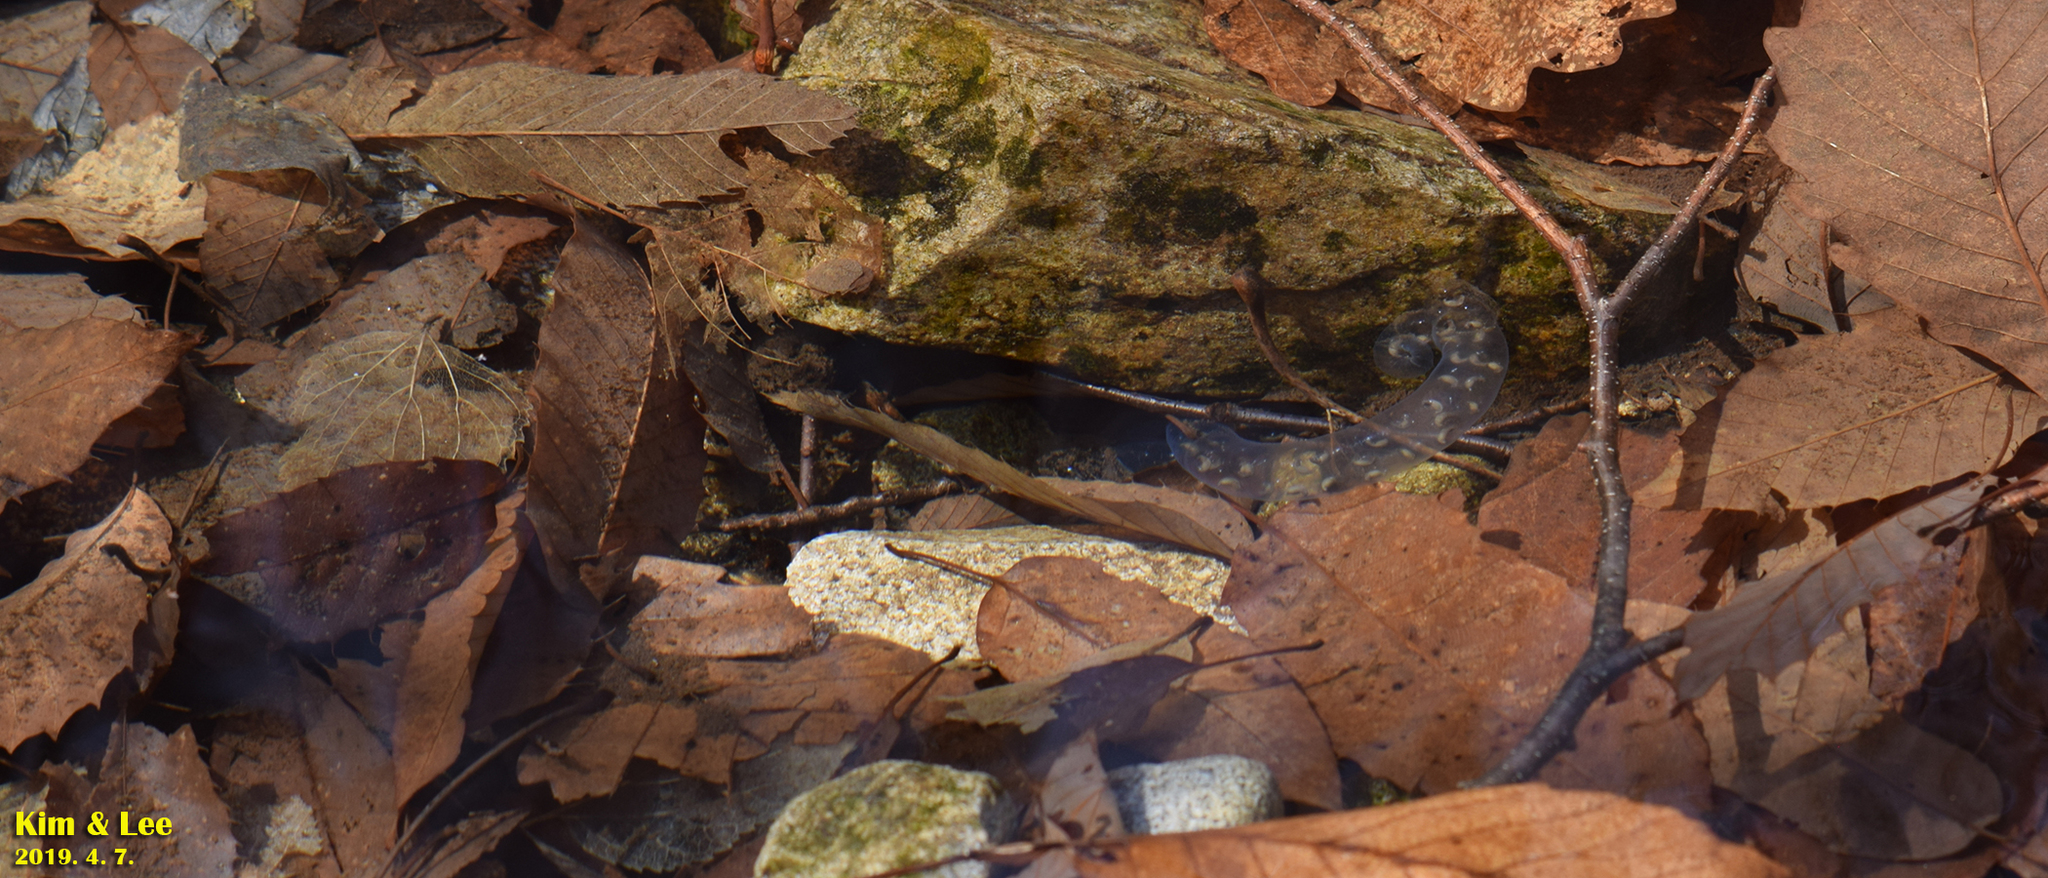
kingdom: Animalia
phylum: Chordata
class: Amphibia
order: Caudata
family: Hynobiidae
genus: Hynobius
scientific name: Hynobius leechii
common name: Gensan salamander
